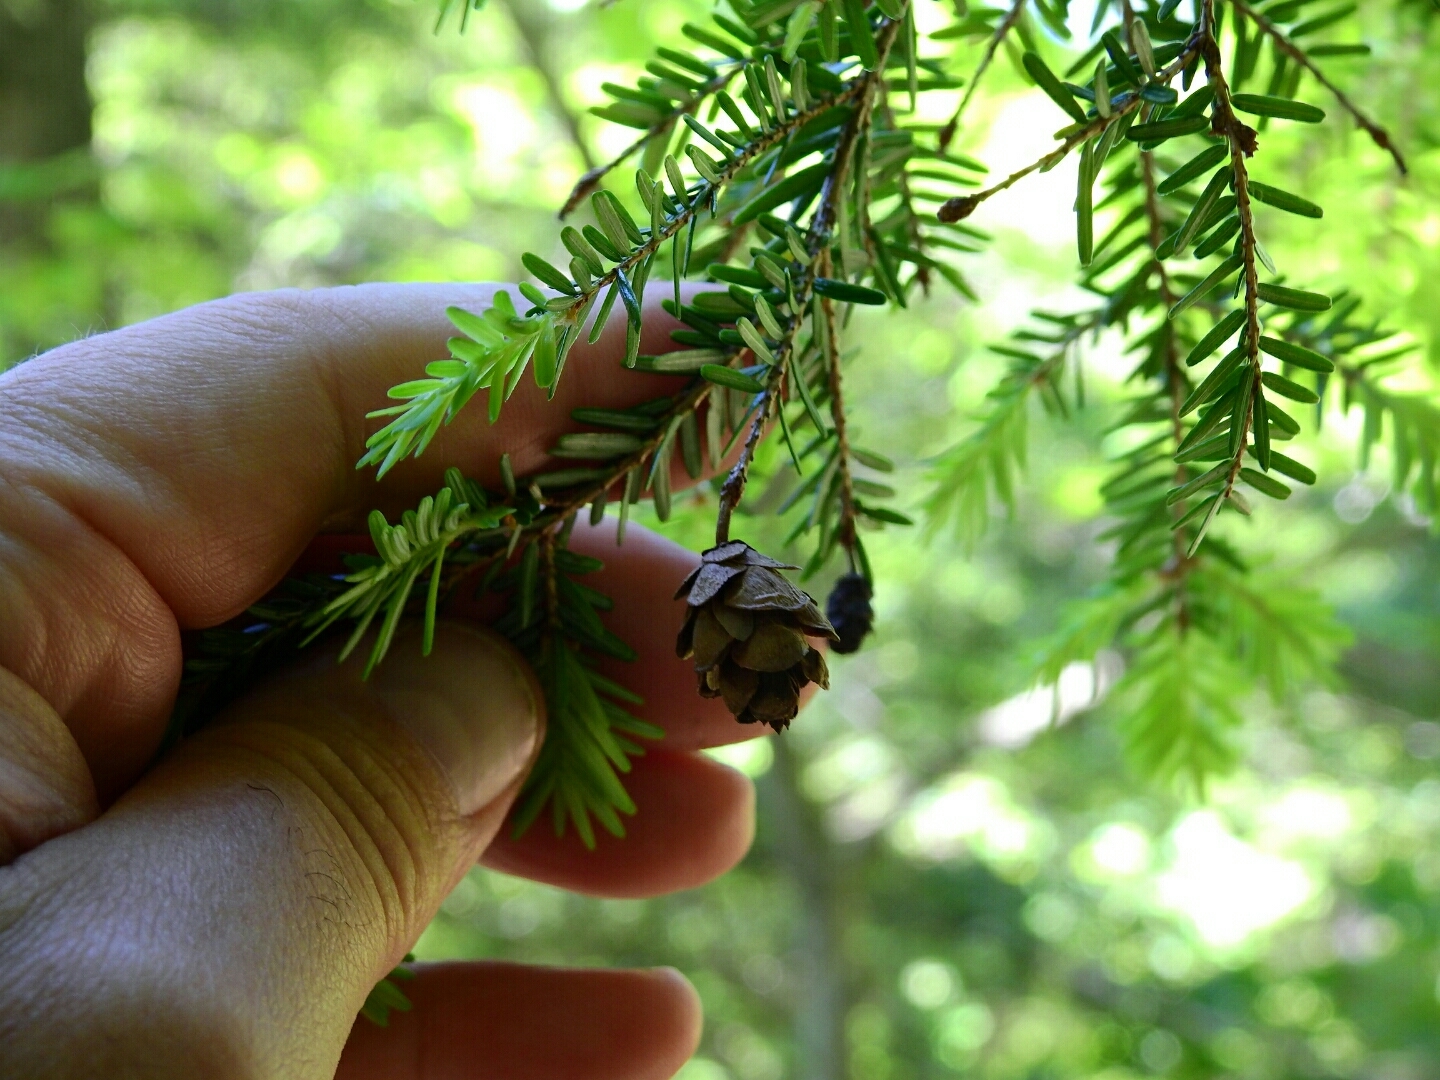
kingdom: Plantae
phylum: Tracheophyta
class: Pinopsida
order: Pinales
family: Pinaceae
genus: Tsuga
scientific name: Tsuga canadensis
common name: Eastern hemlock
